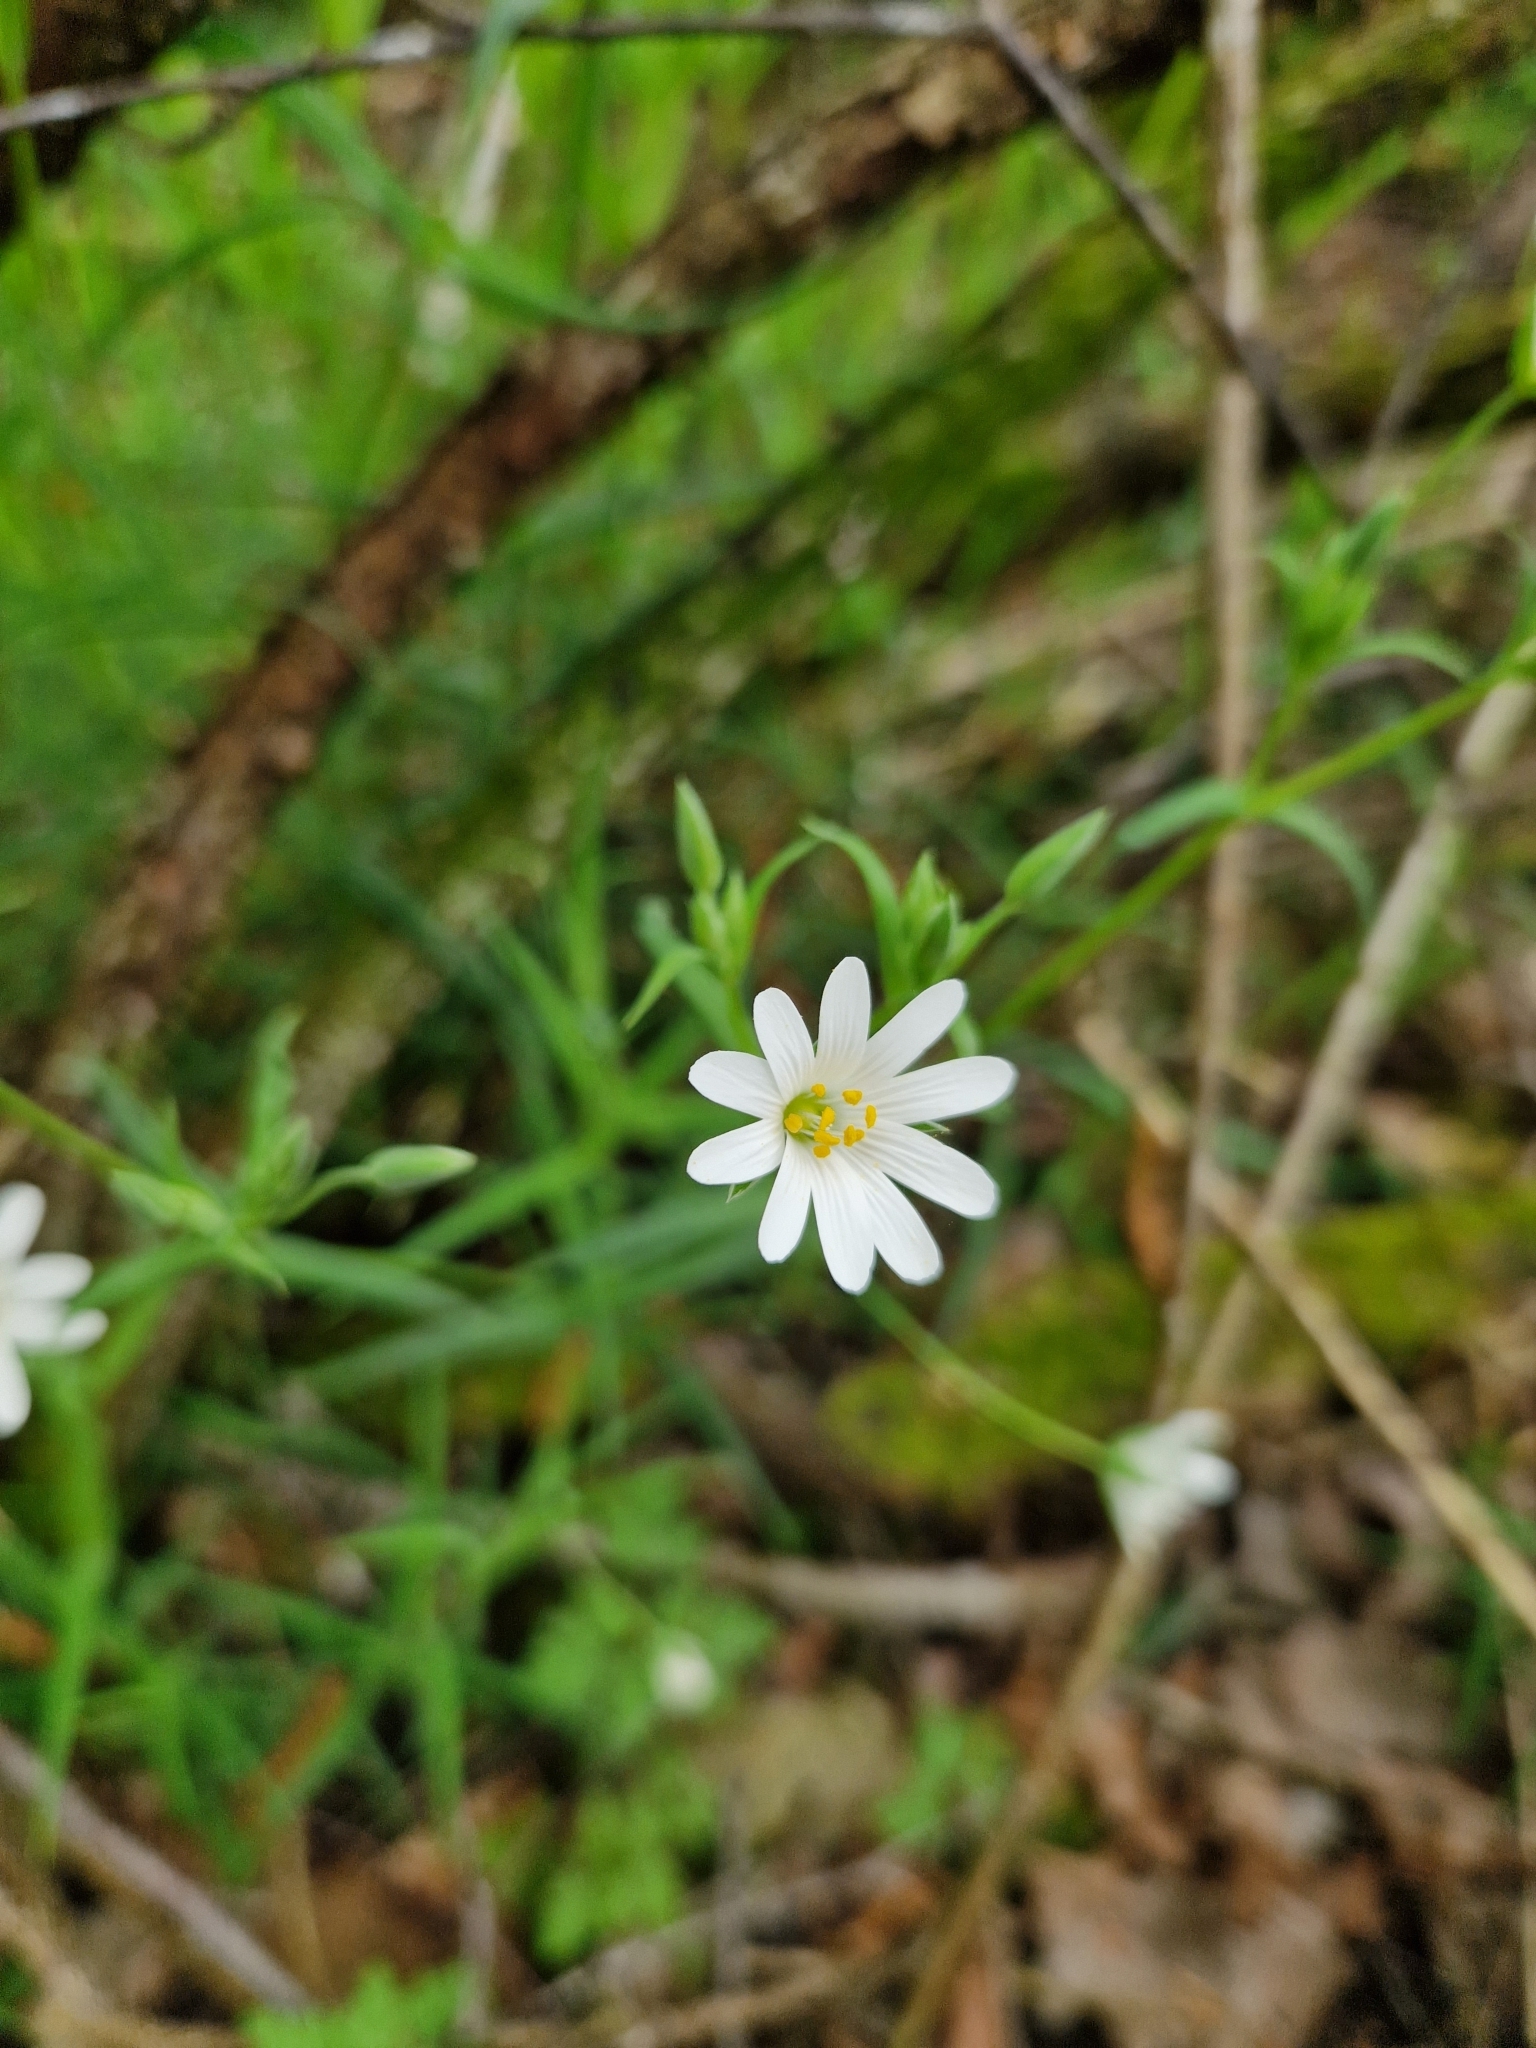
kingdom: Plantae
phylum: Tracheophyta
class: Magnoliopsida
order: Caryophyllales
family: Caryophyllaceae
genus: Rabelera
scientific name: Rabelera holostea
